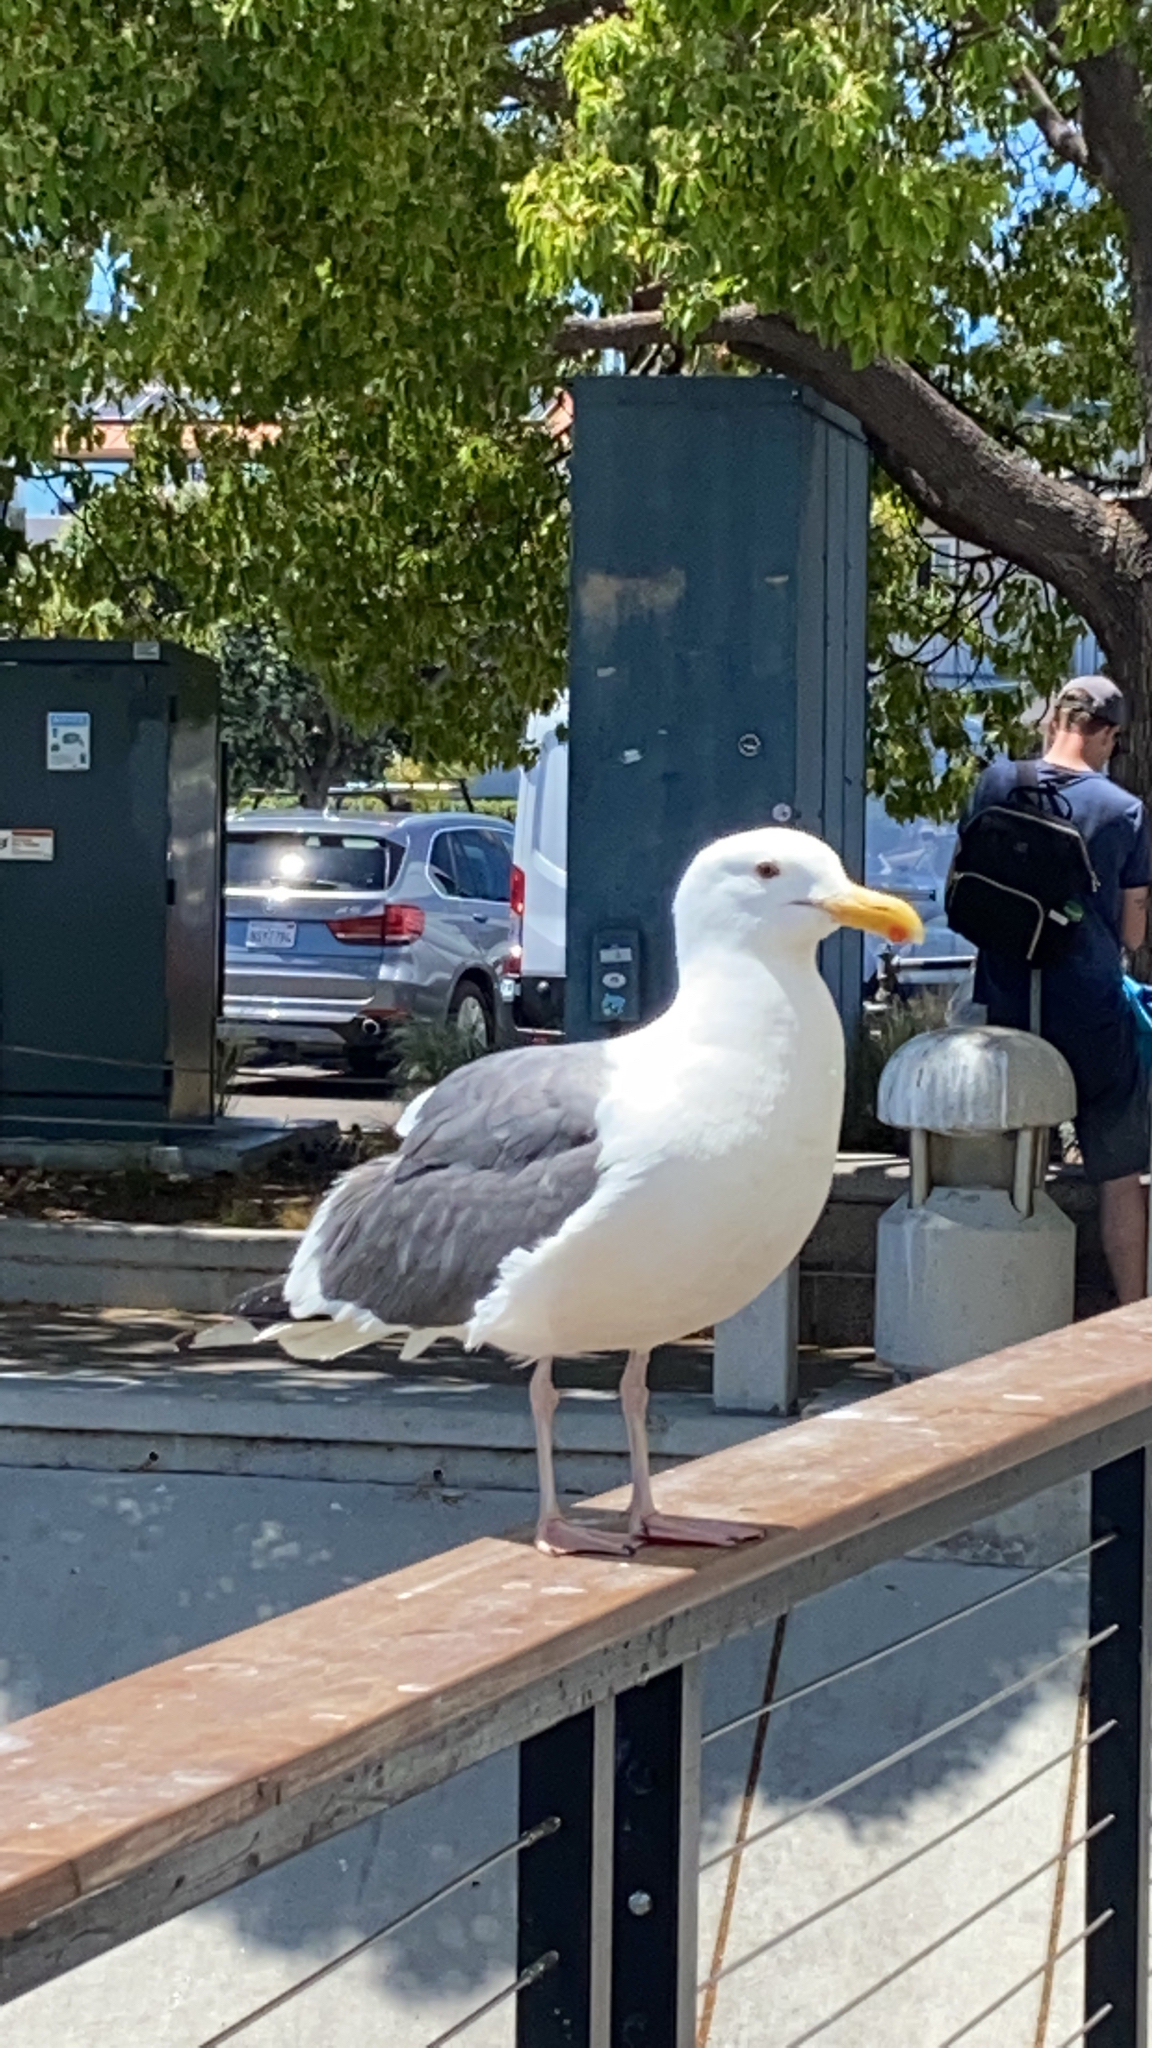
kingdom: Animalia
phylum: Chordata
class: Aves
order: Charadriiformes
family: Laridae
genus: Larus
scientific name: Larus occidentalis
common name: Western gull
